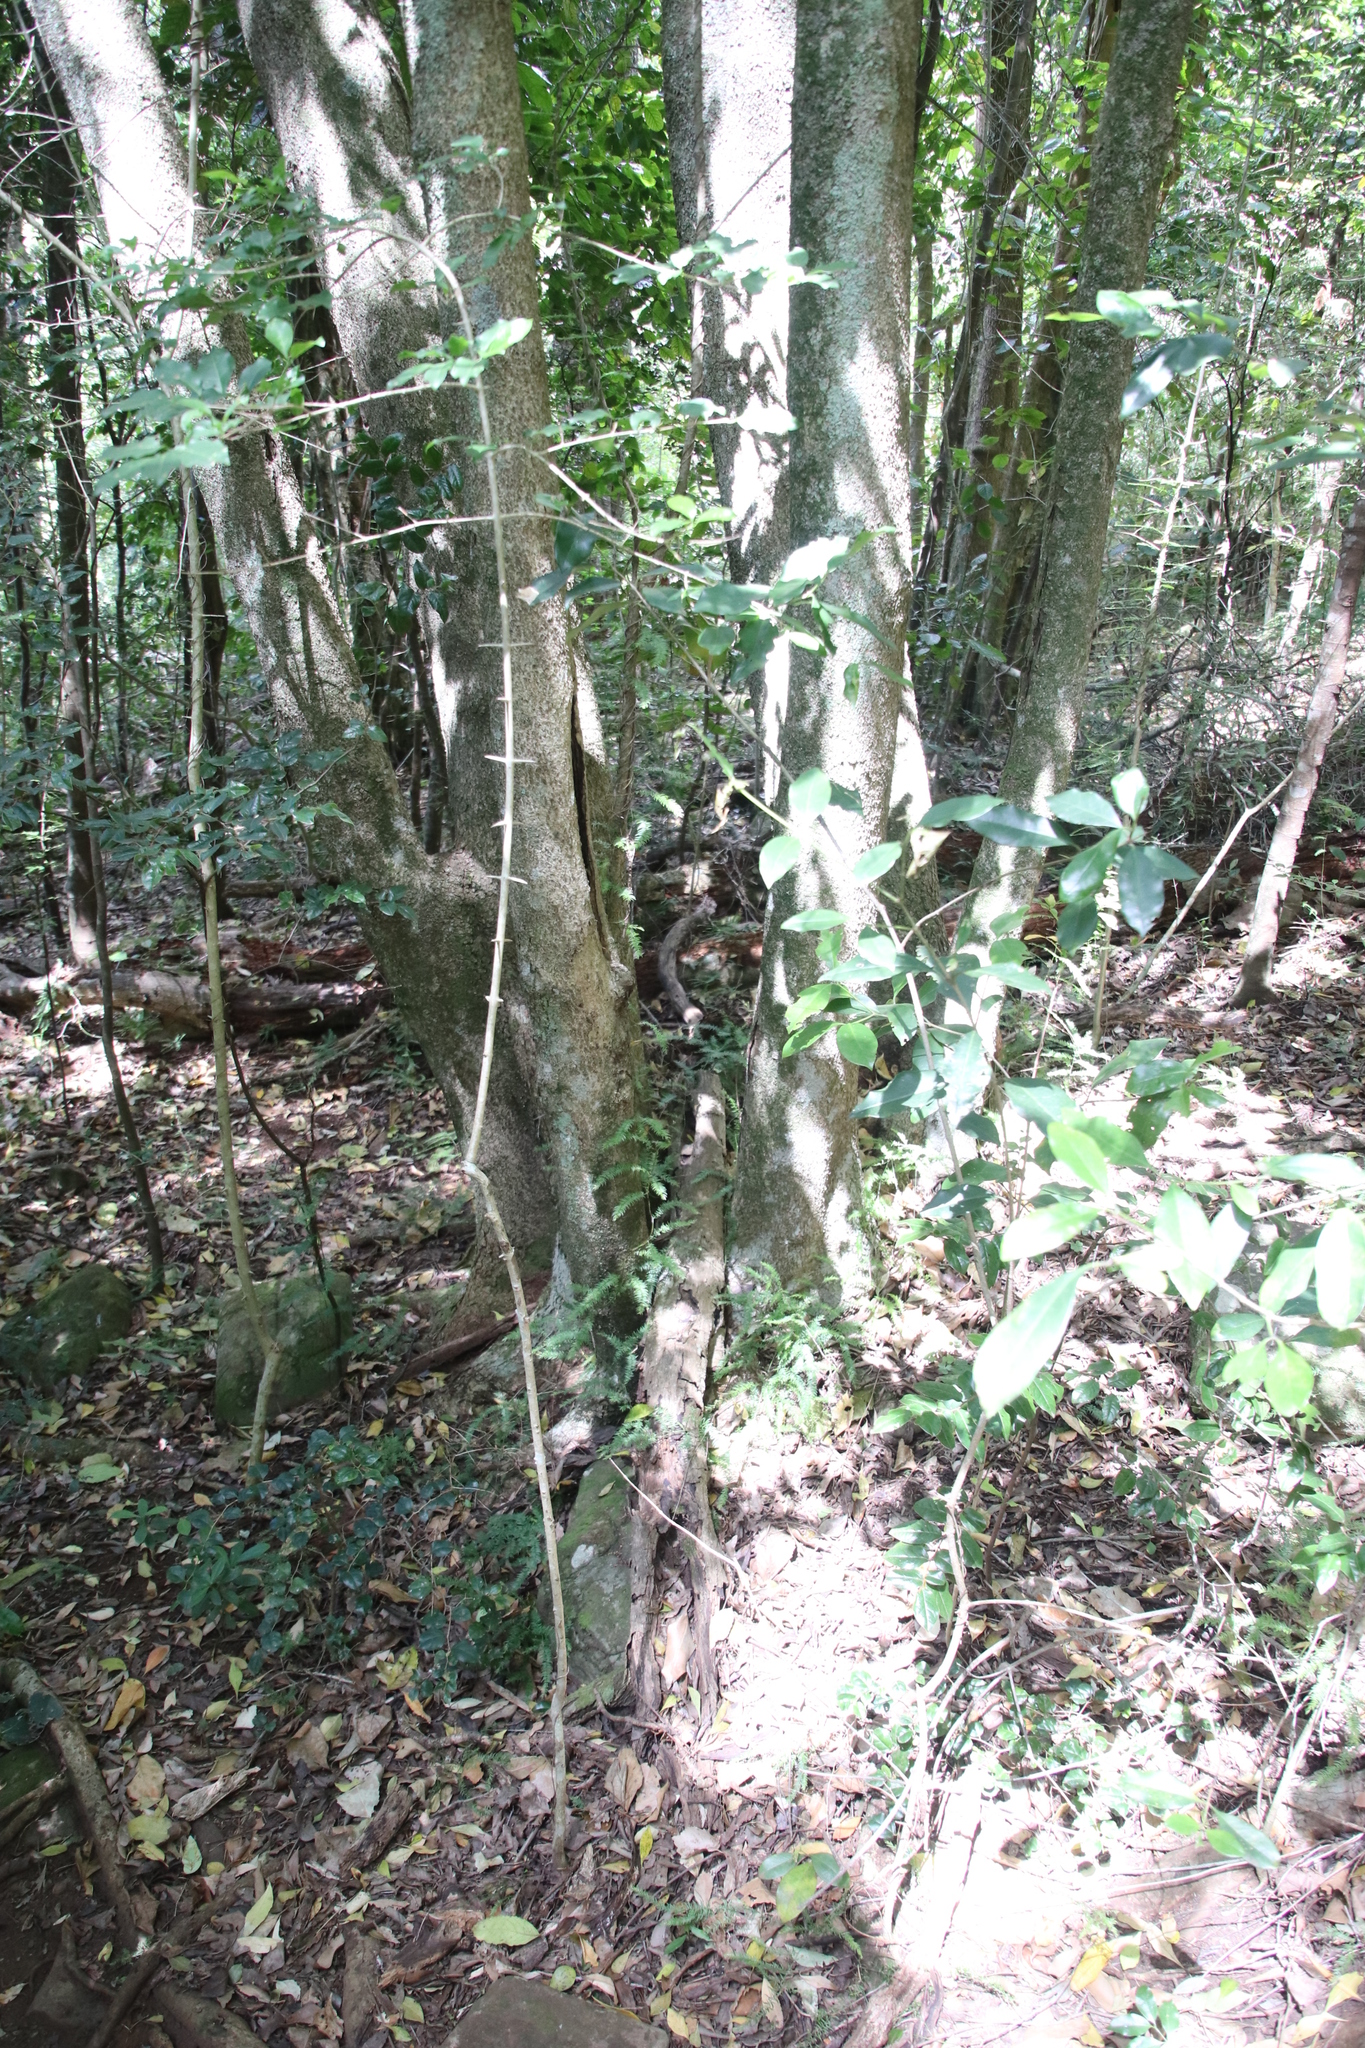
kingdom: Plantae
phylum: Tracheophyta
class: Magnoliopsida
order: Celastrales
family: Celastraceae
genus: Cassine
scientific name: Cassine peragua
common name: Cape saffron
